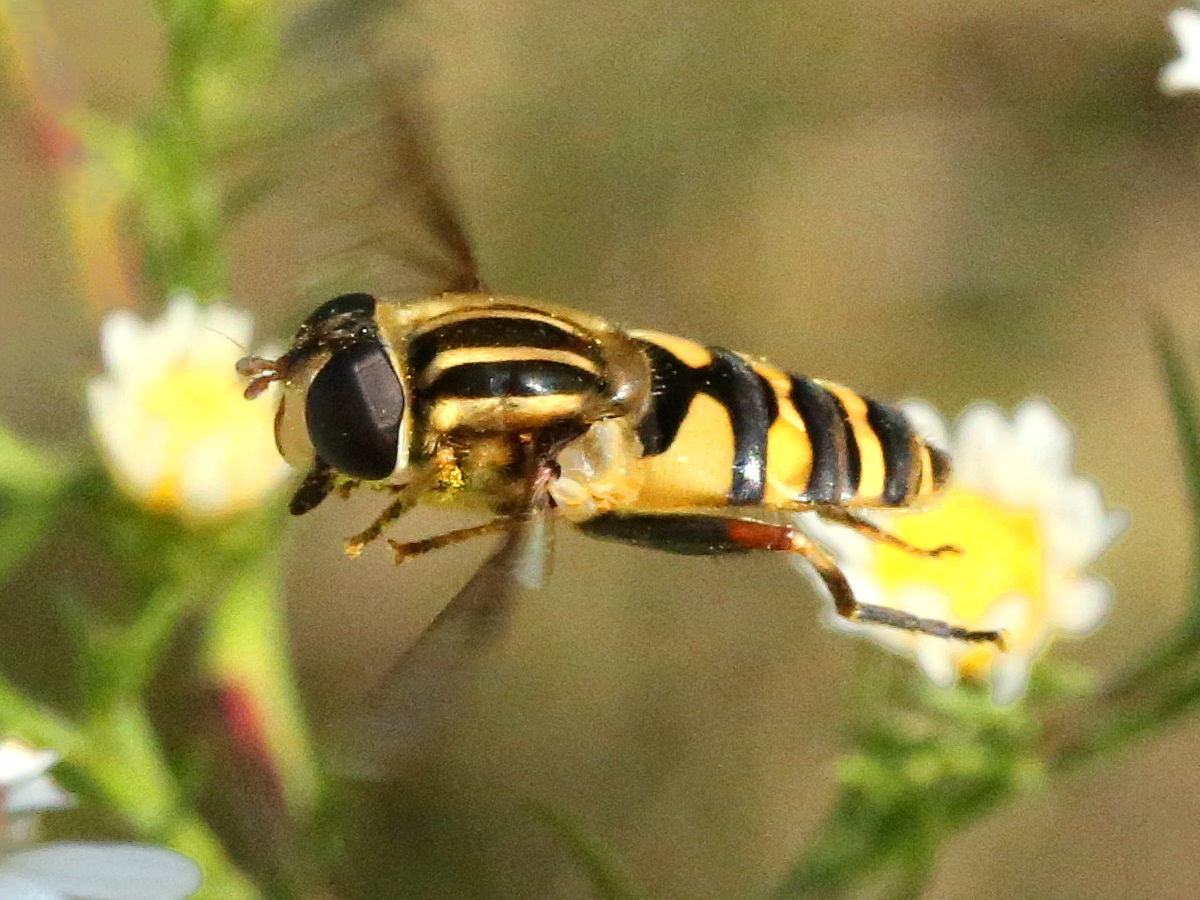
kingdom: Animalia
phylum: Arthropoda
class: Insecta
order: Diptera
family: Syrphidae
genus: Helophilus
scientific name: Helophilus fasciatus
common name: Narrow-headed marsh fly
